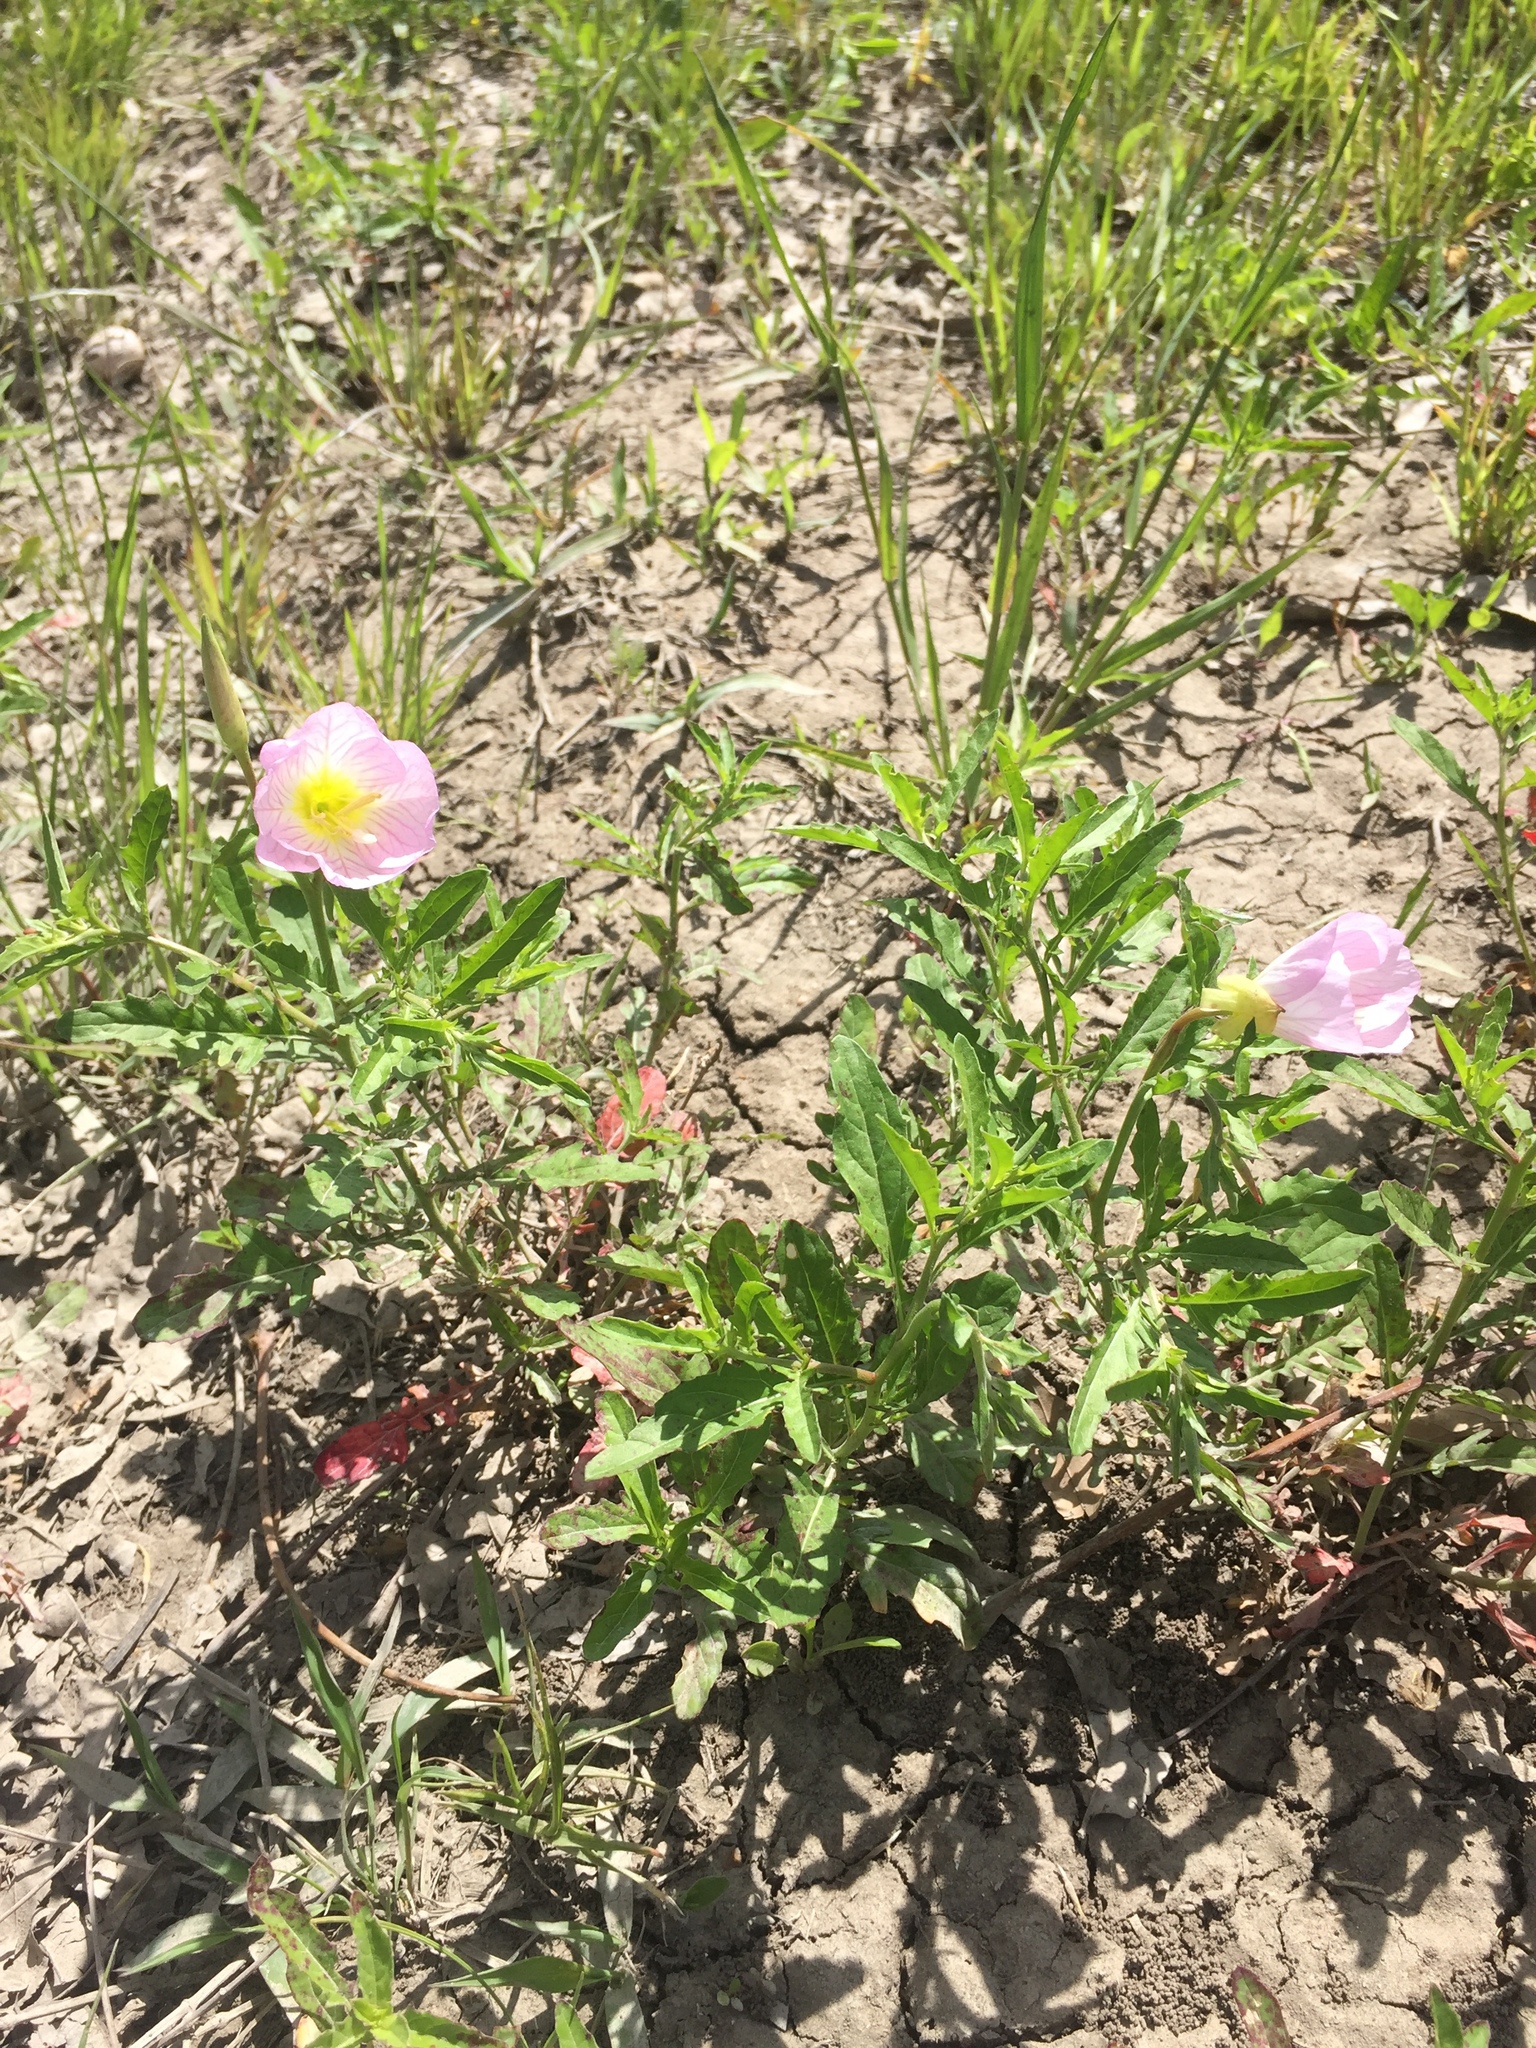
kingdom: Plantae
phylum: Tracheophyta
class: Magnoliopsida
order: Myrtales
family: Onagraceae
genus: Oenothera
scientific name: Oenothera speciosa
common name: White evening-primrose
